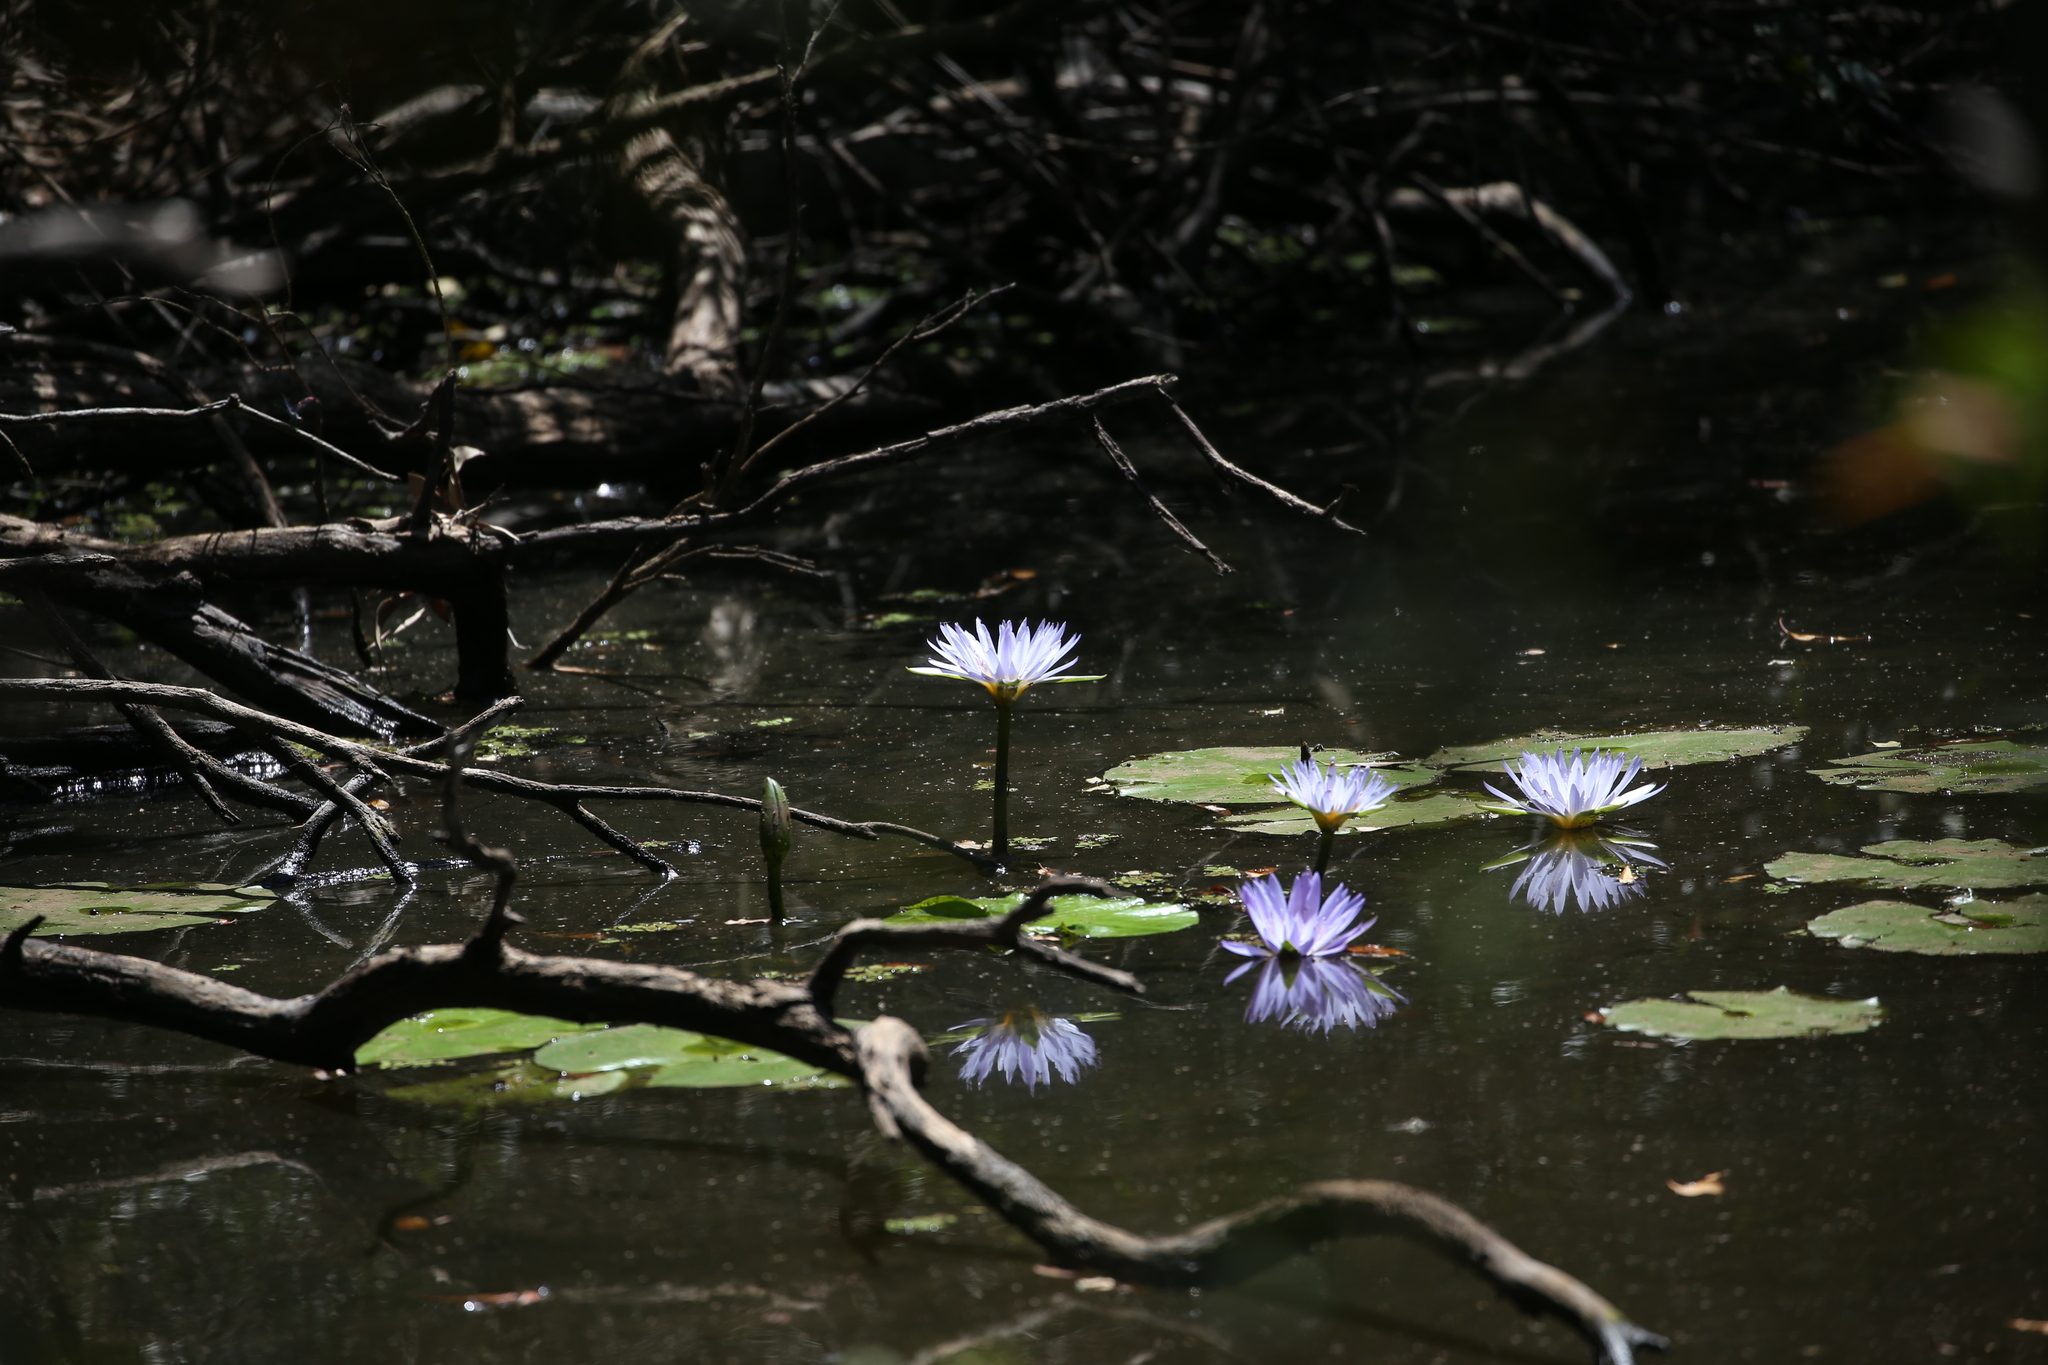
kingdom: Plantae
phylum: Tracheophyta
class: Magnoliopsida
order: Nymphaeales
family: Nymphaeaceae
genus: Nymphaea
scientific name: Nymphaea nouchali
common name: Blue lotus
